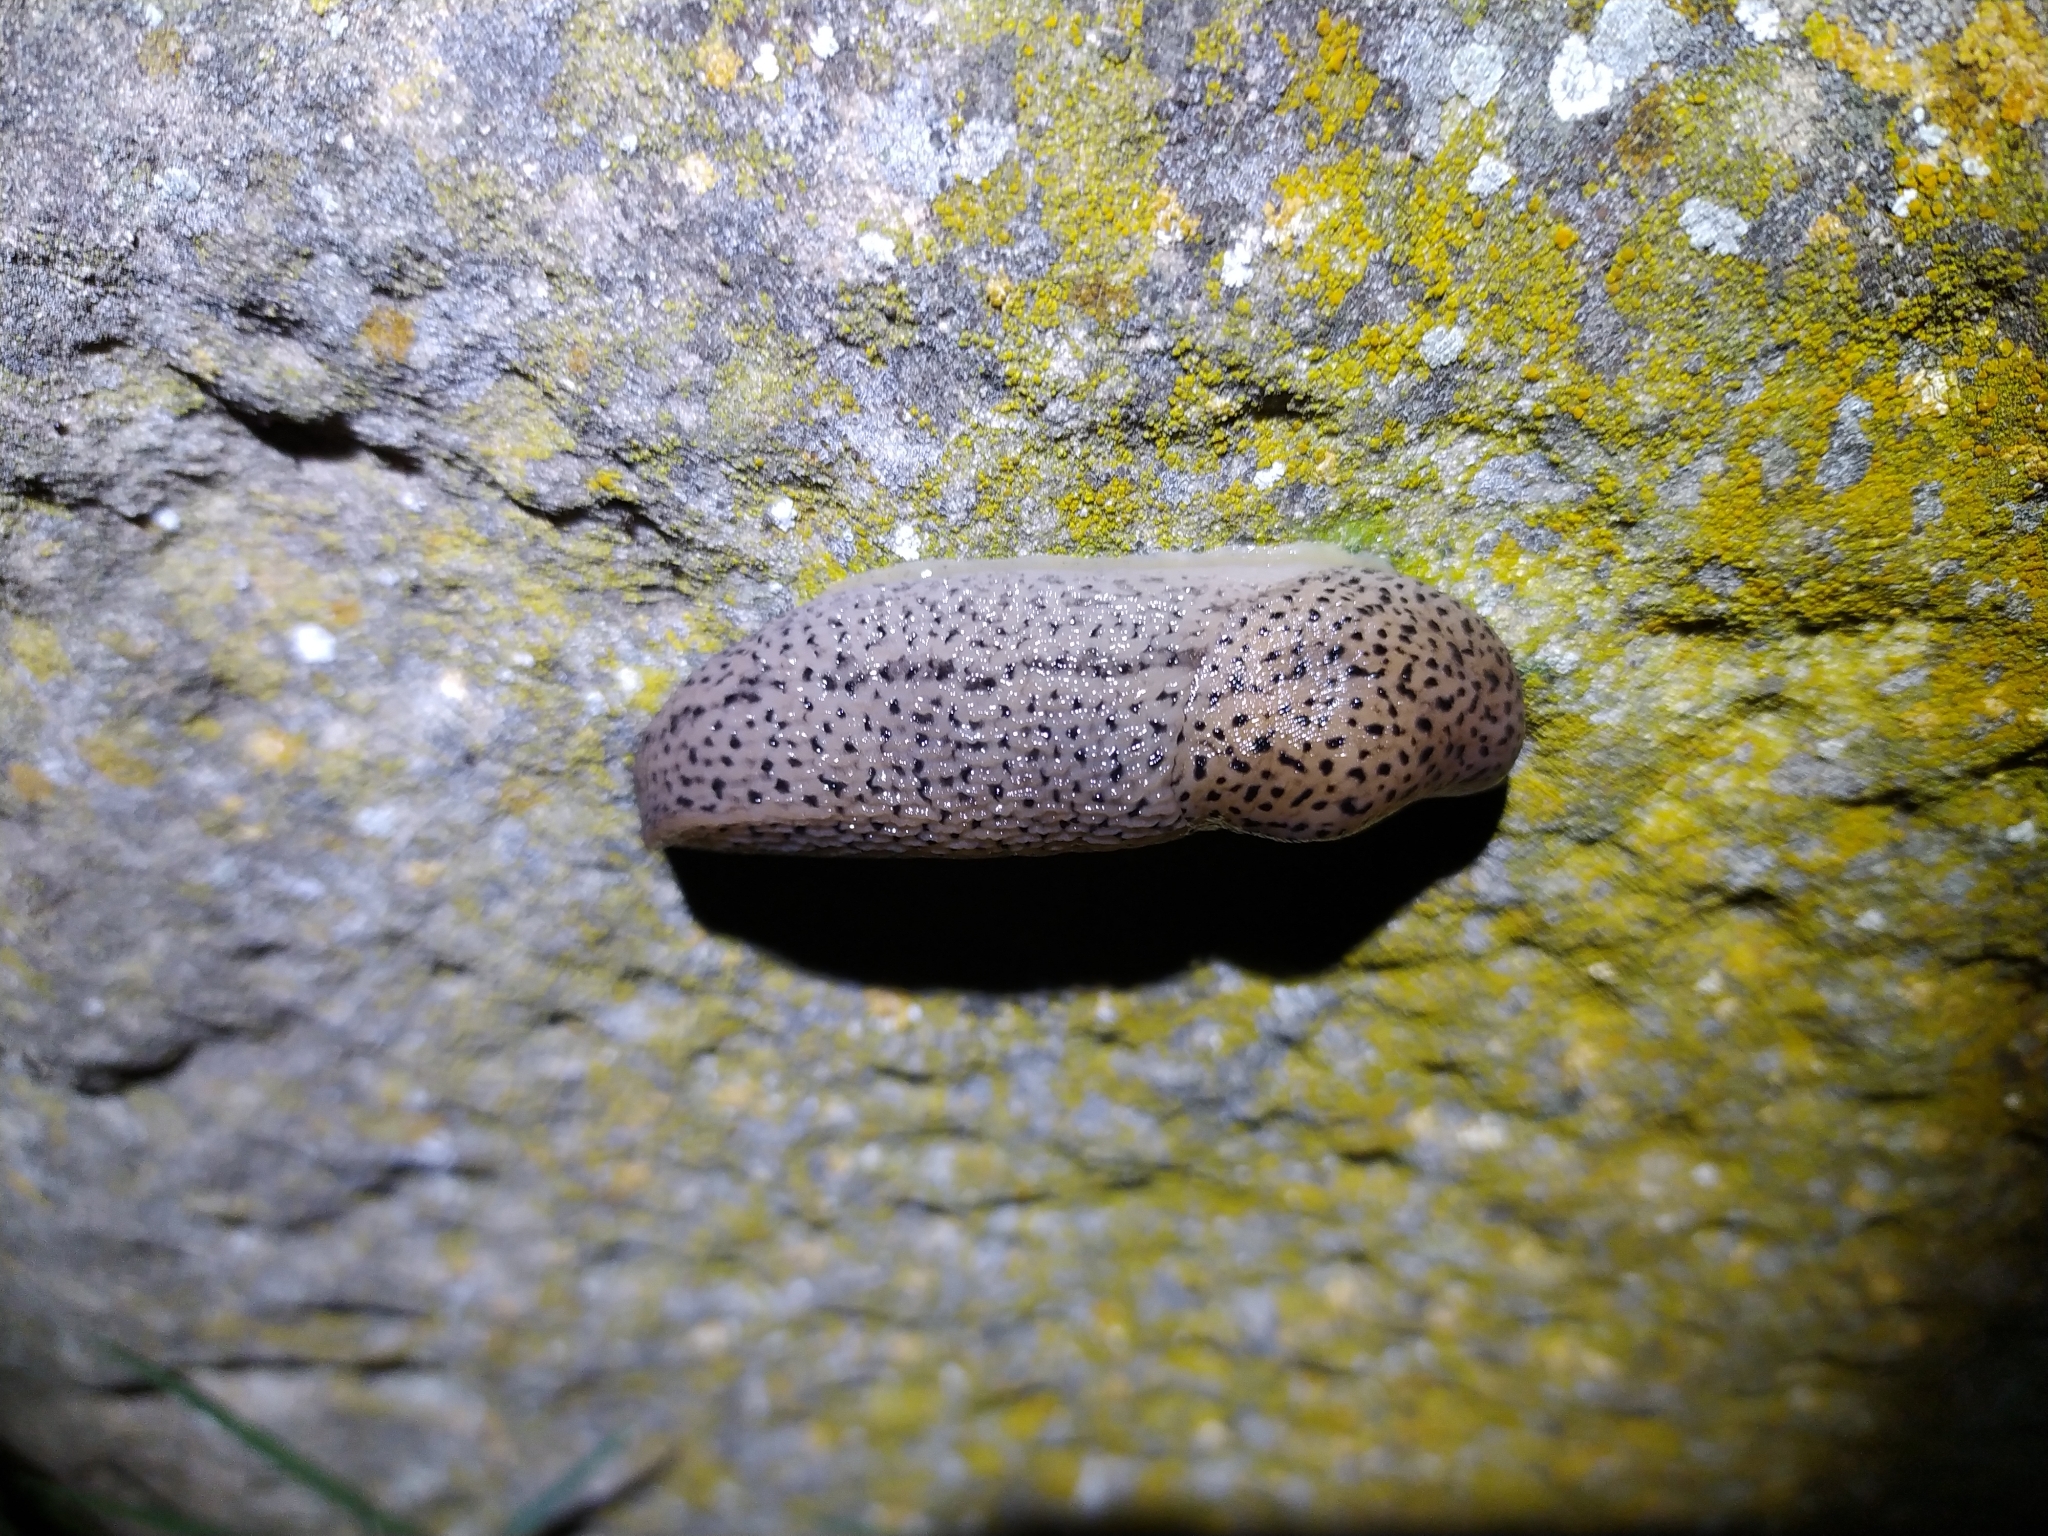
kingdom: Animalia
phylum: Mollusca
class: Gastropoda
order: Stylommatophora
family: Limacidae
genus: Limax
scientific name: Limax maximus
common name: Great grey slug
